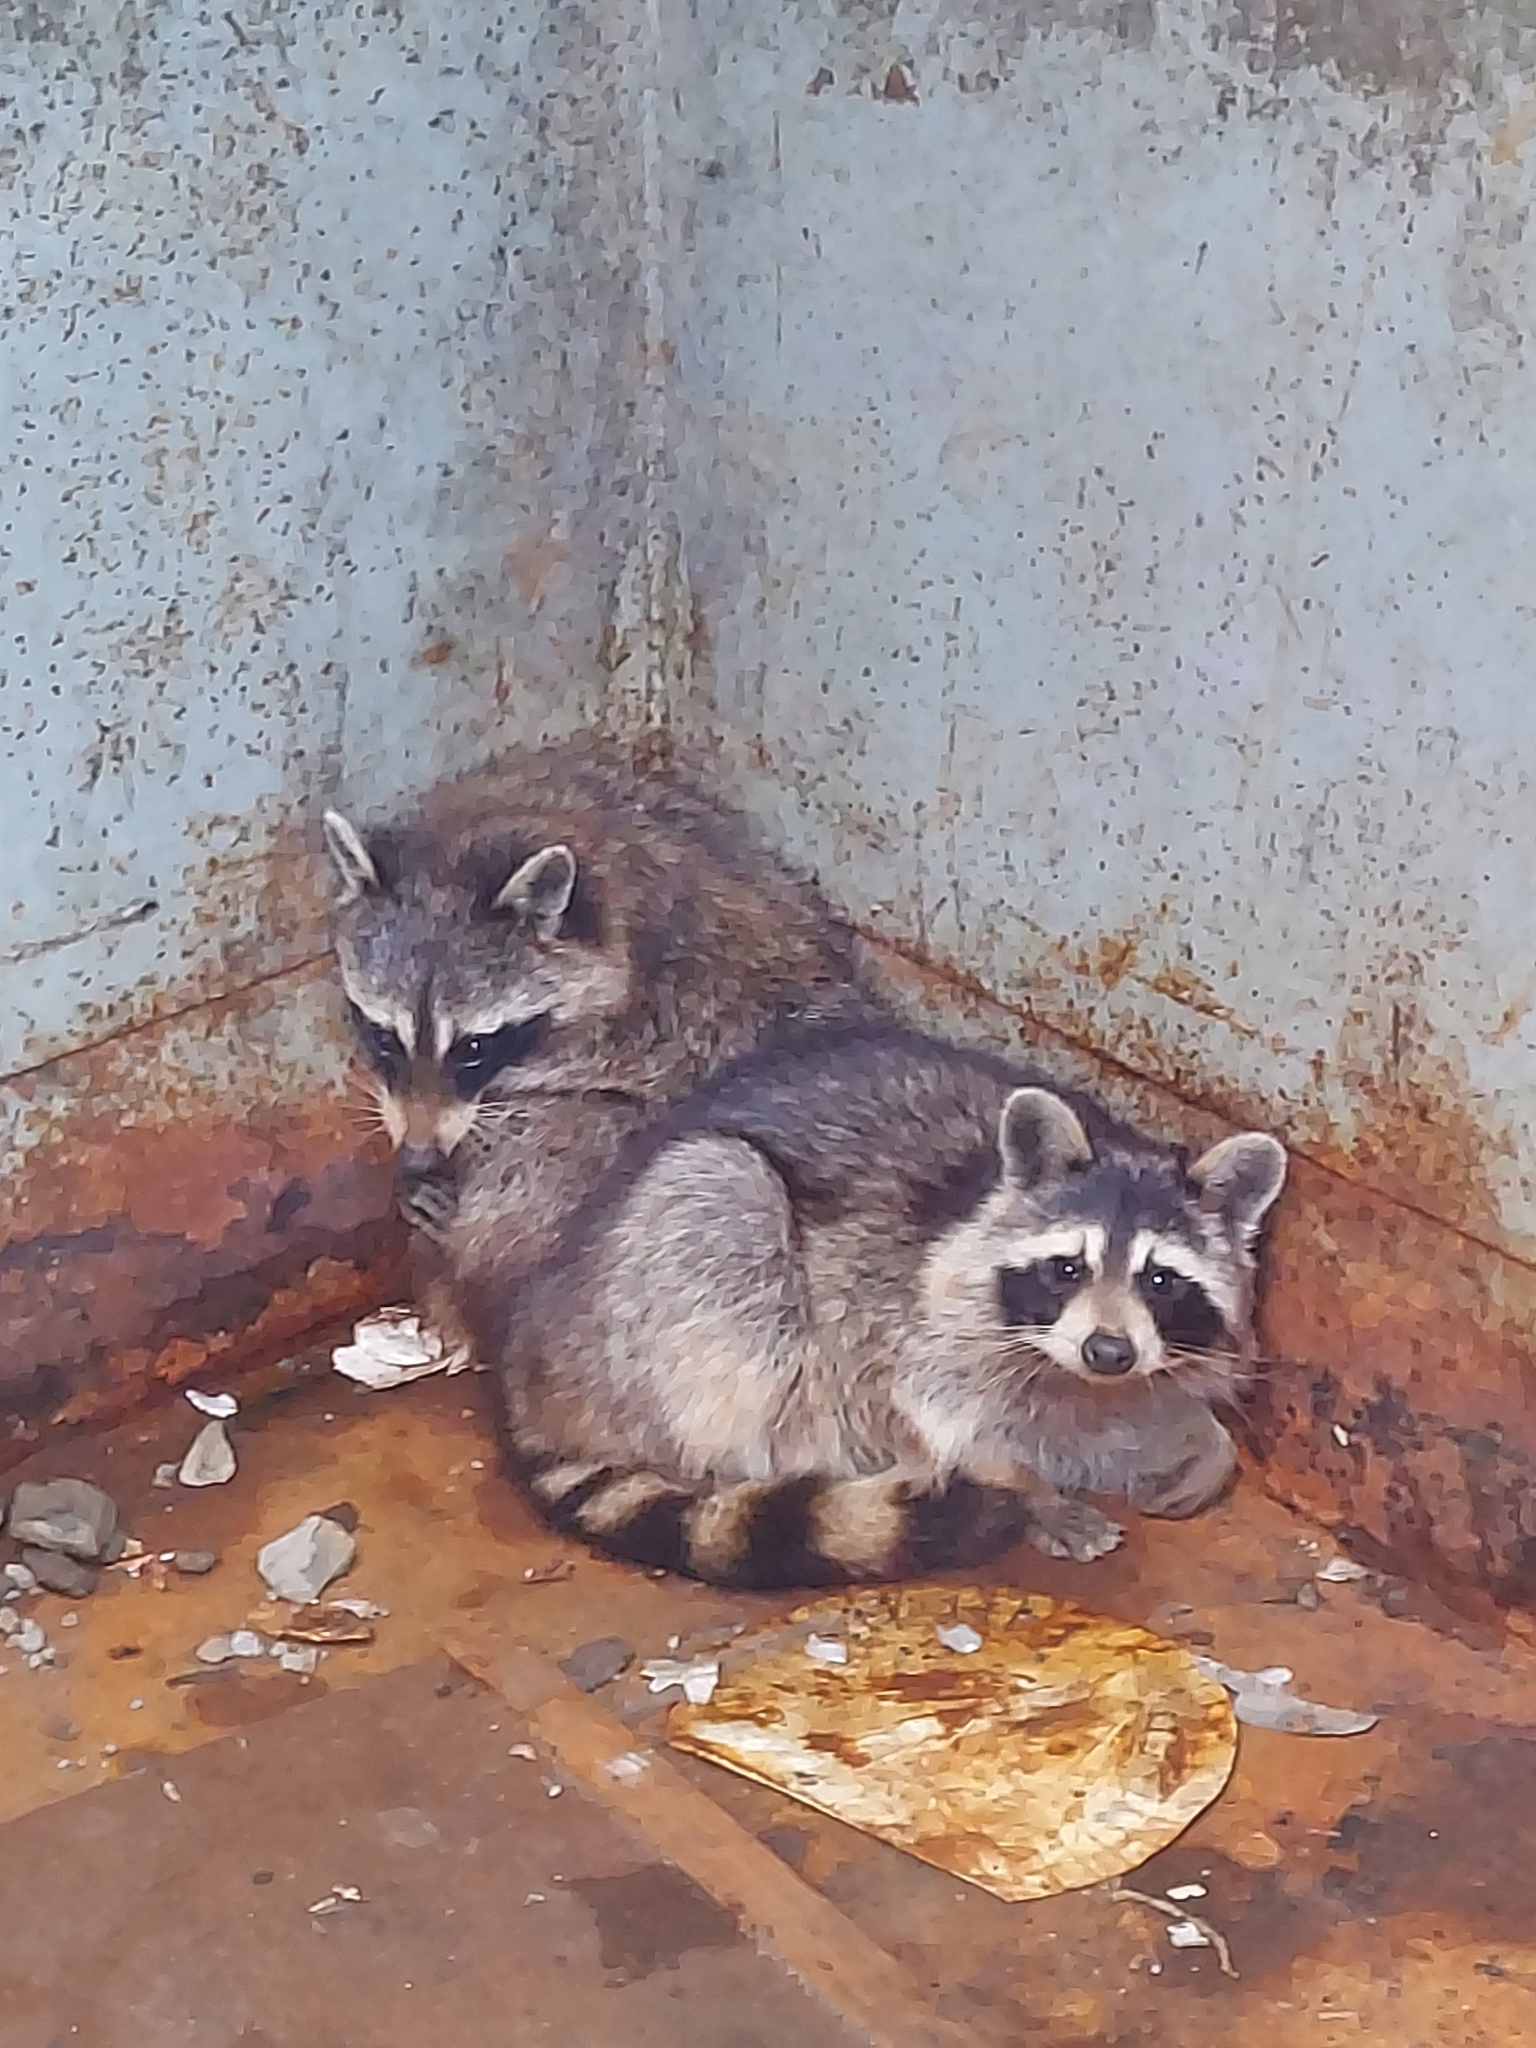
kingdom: Animalia
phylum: Chordata
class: Mammalia
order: Carnivora
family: Procyonidae
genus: Procyon
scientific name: Procyon lotor
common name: Raccoon
